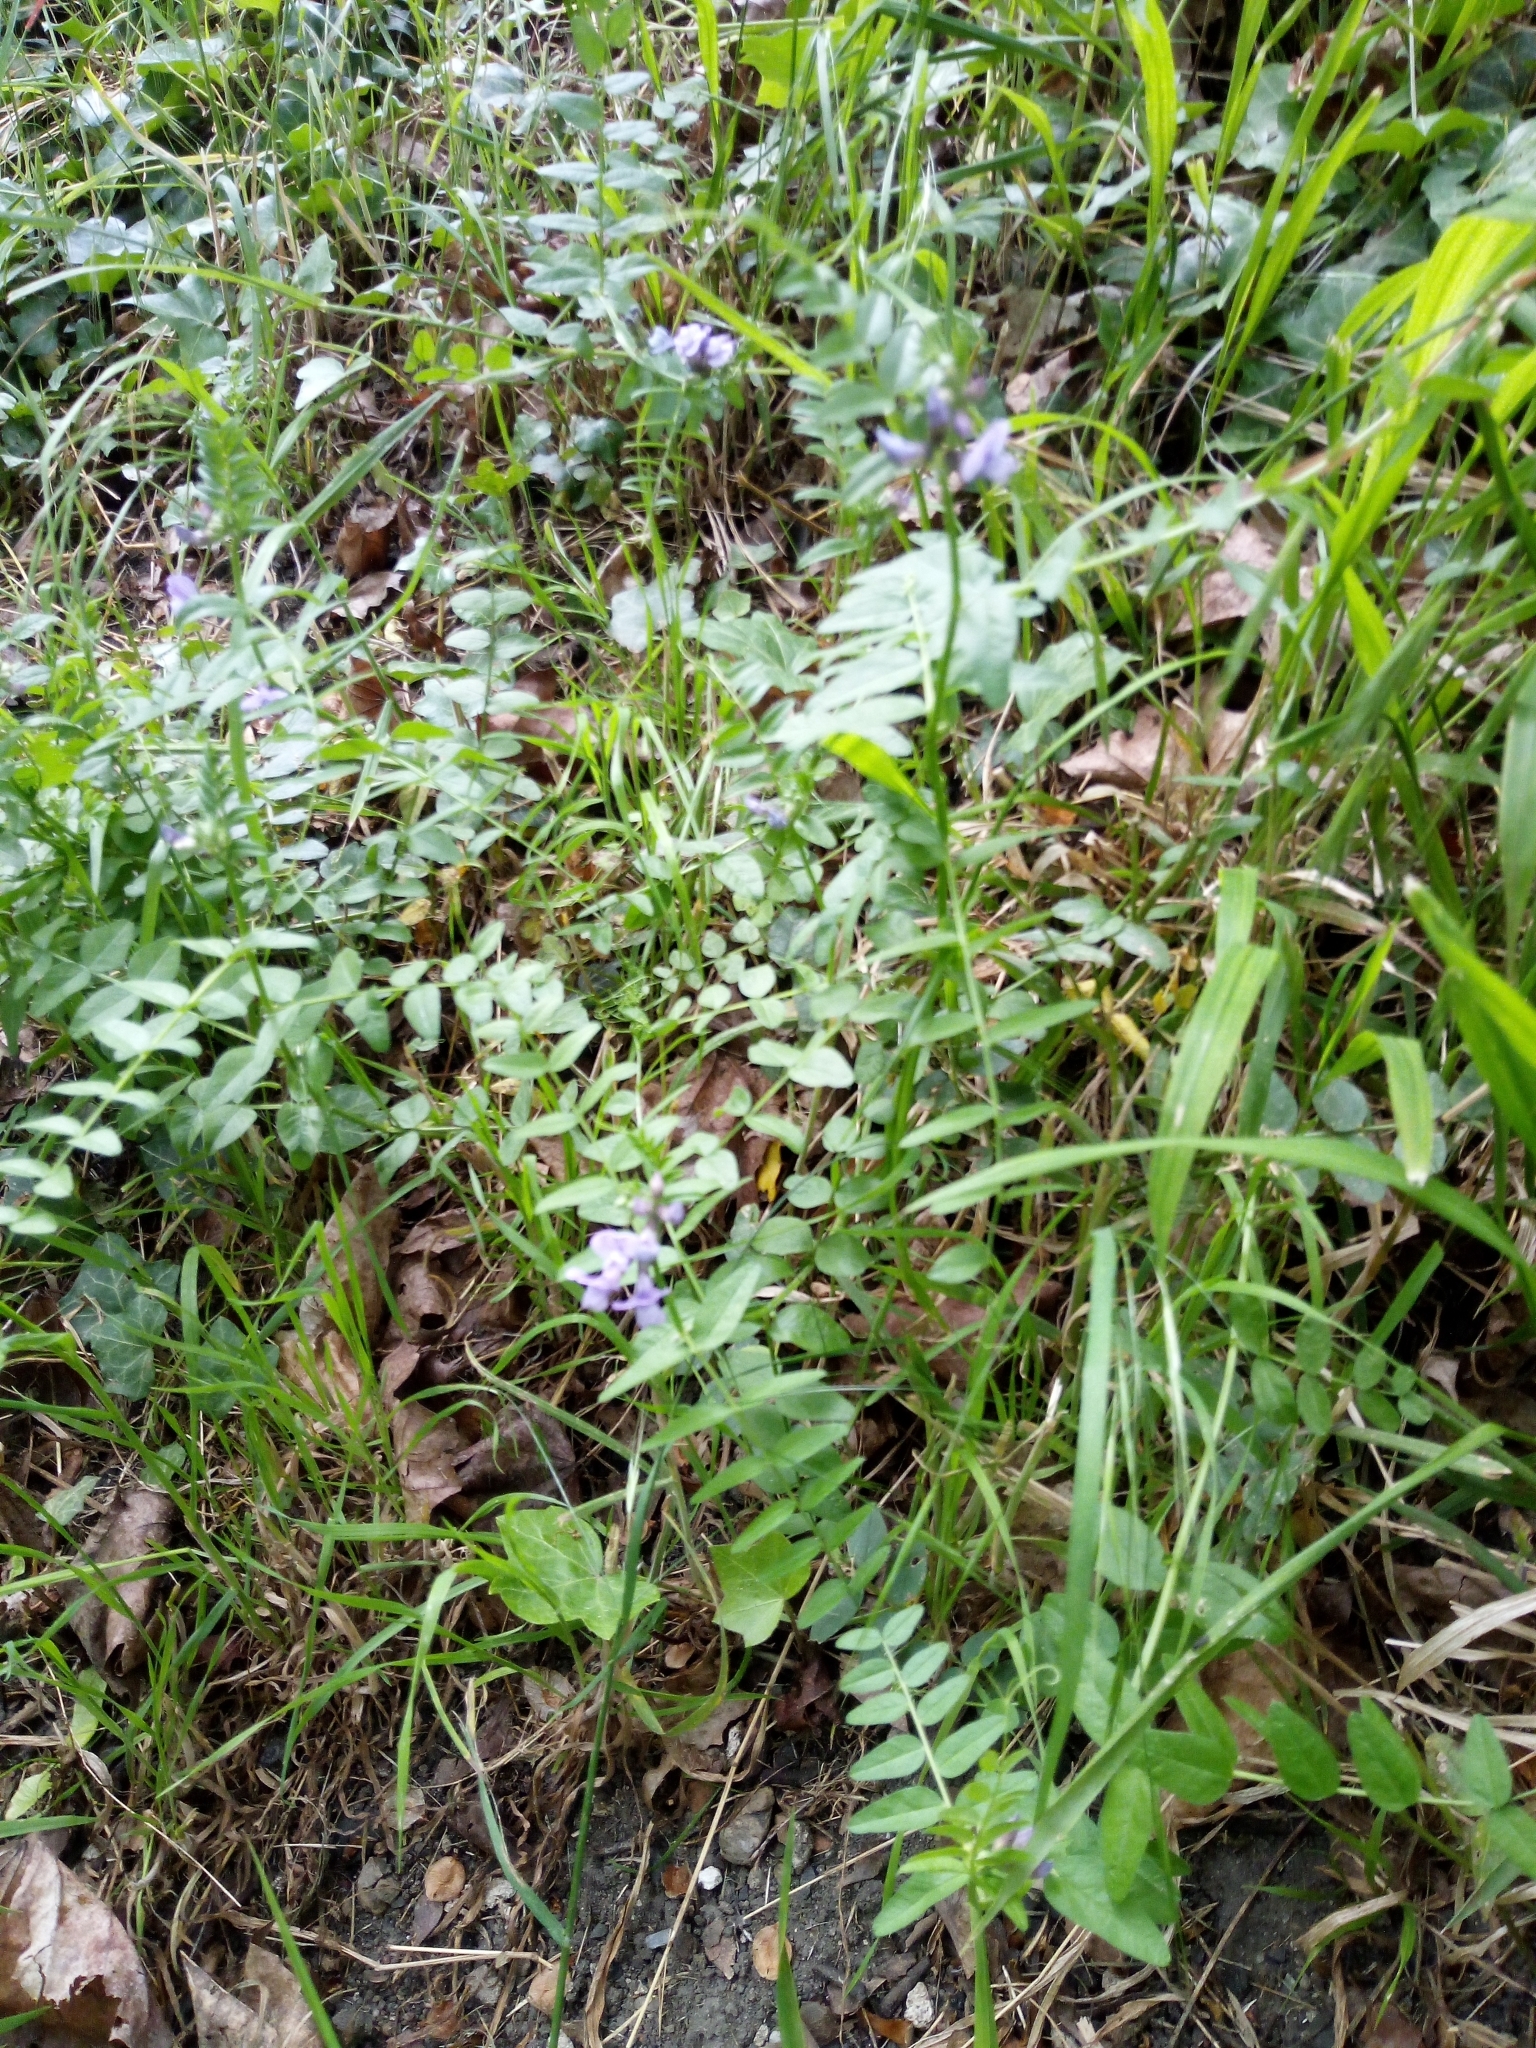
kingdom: Plantae
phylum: Tracheophyta
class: Magnoliopsida
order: Fabales
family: Fabaceae
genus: Vicia
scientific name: Vicia sepium
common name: Bush vetch
